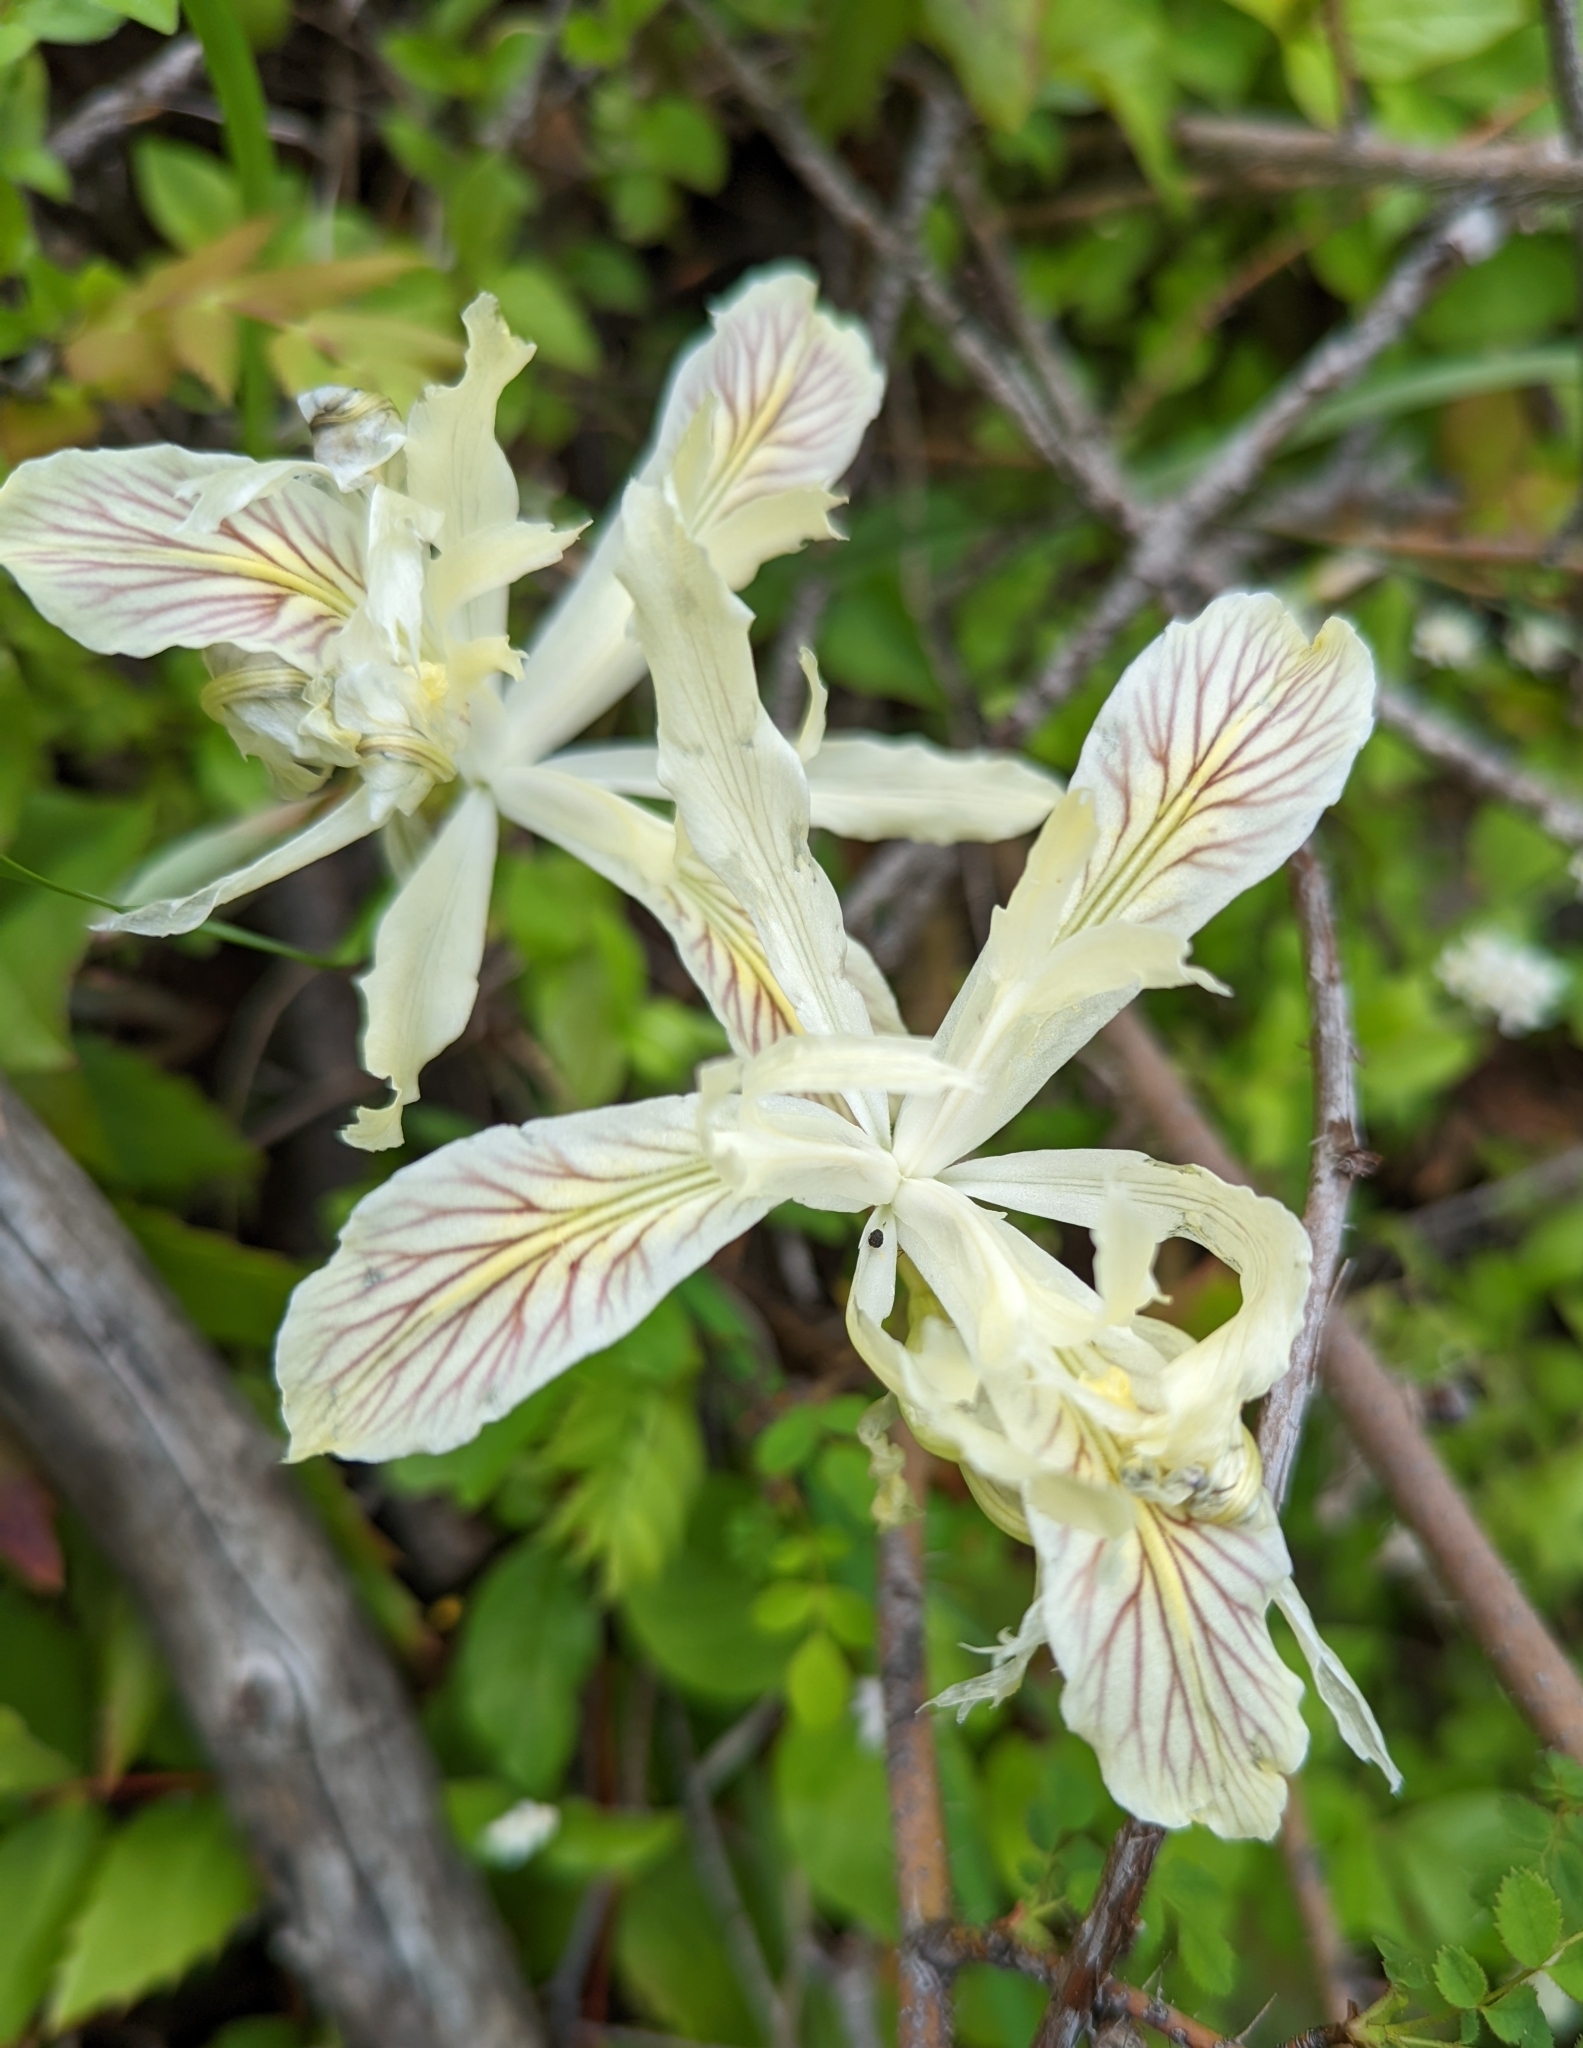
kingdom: Plantae
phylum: Tracheophyta
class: Liliopsida
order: Asparagales
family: Iridaceae
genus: Iris
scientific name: Iris chrysophylla
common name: Yellow-leaf iris
